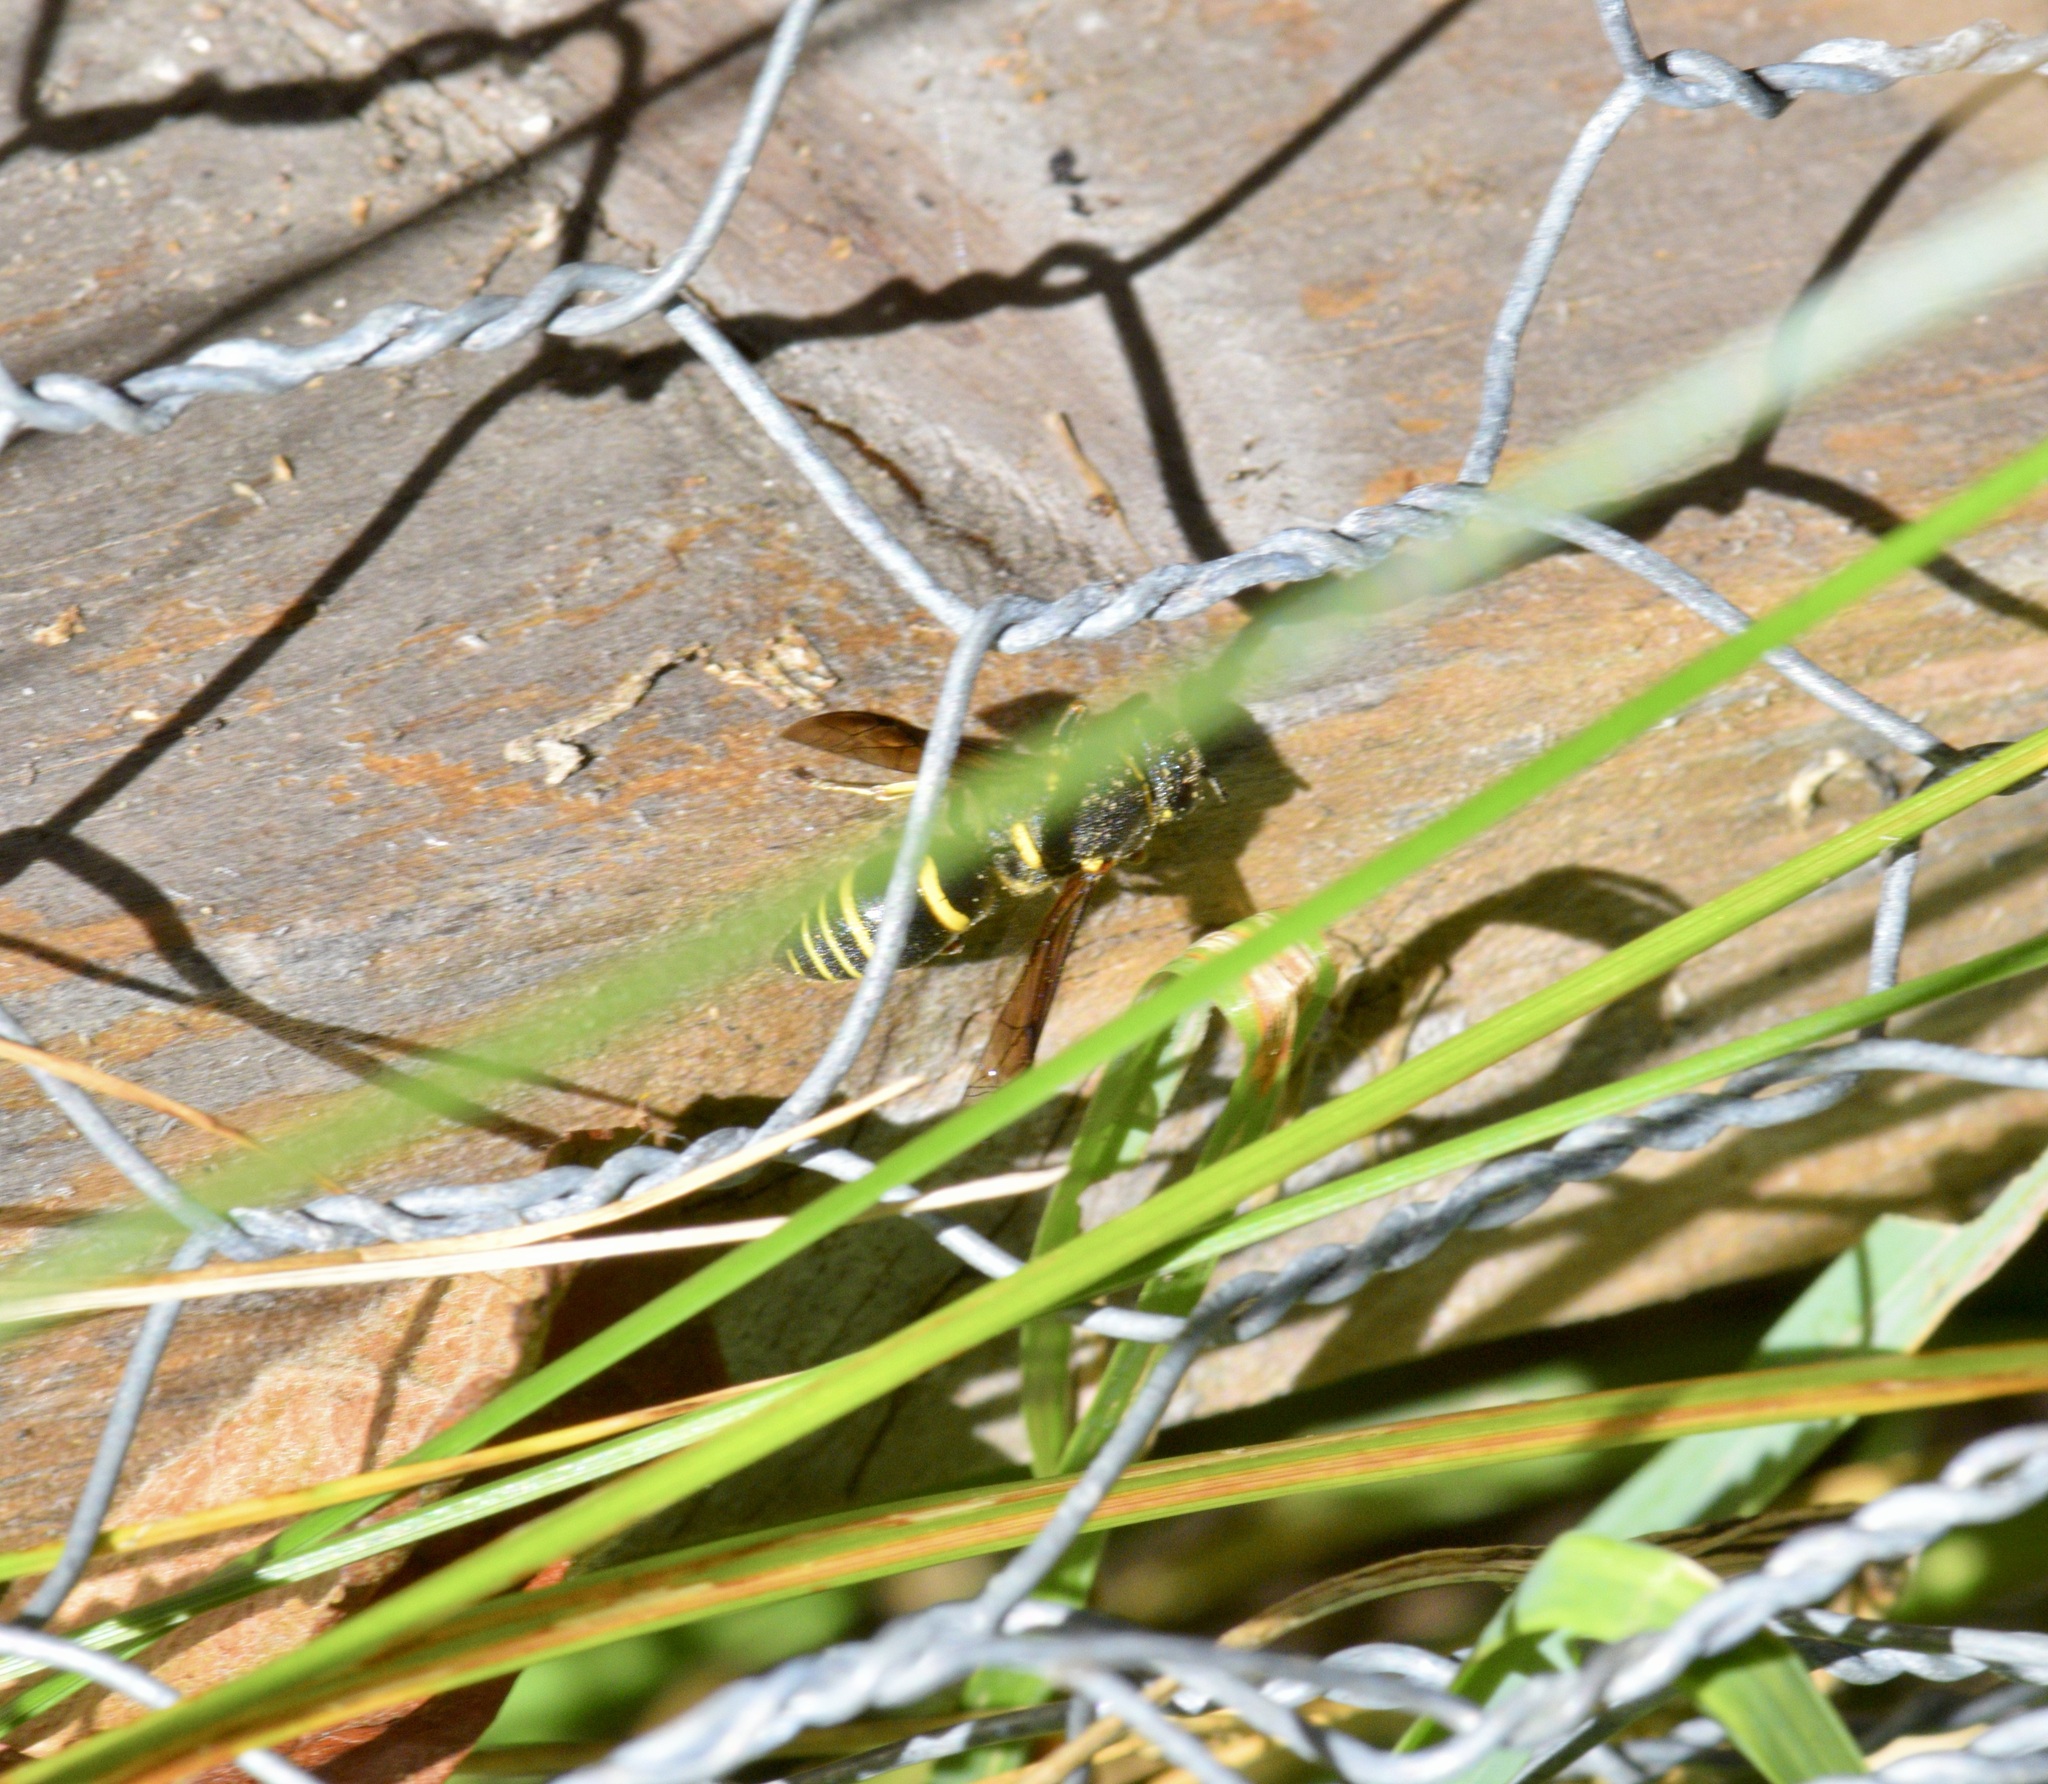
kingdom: Animalia
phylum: Arthropoda
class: Insecta
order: Hymenoptera
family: Eumenidae
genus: Euodynerus
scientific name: Euodynerus foraminatus
